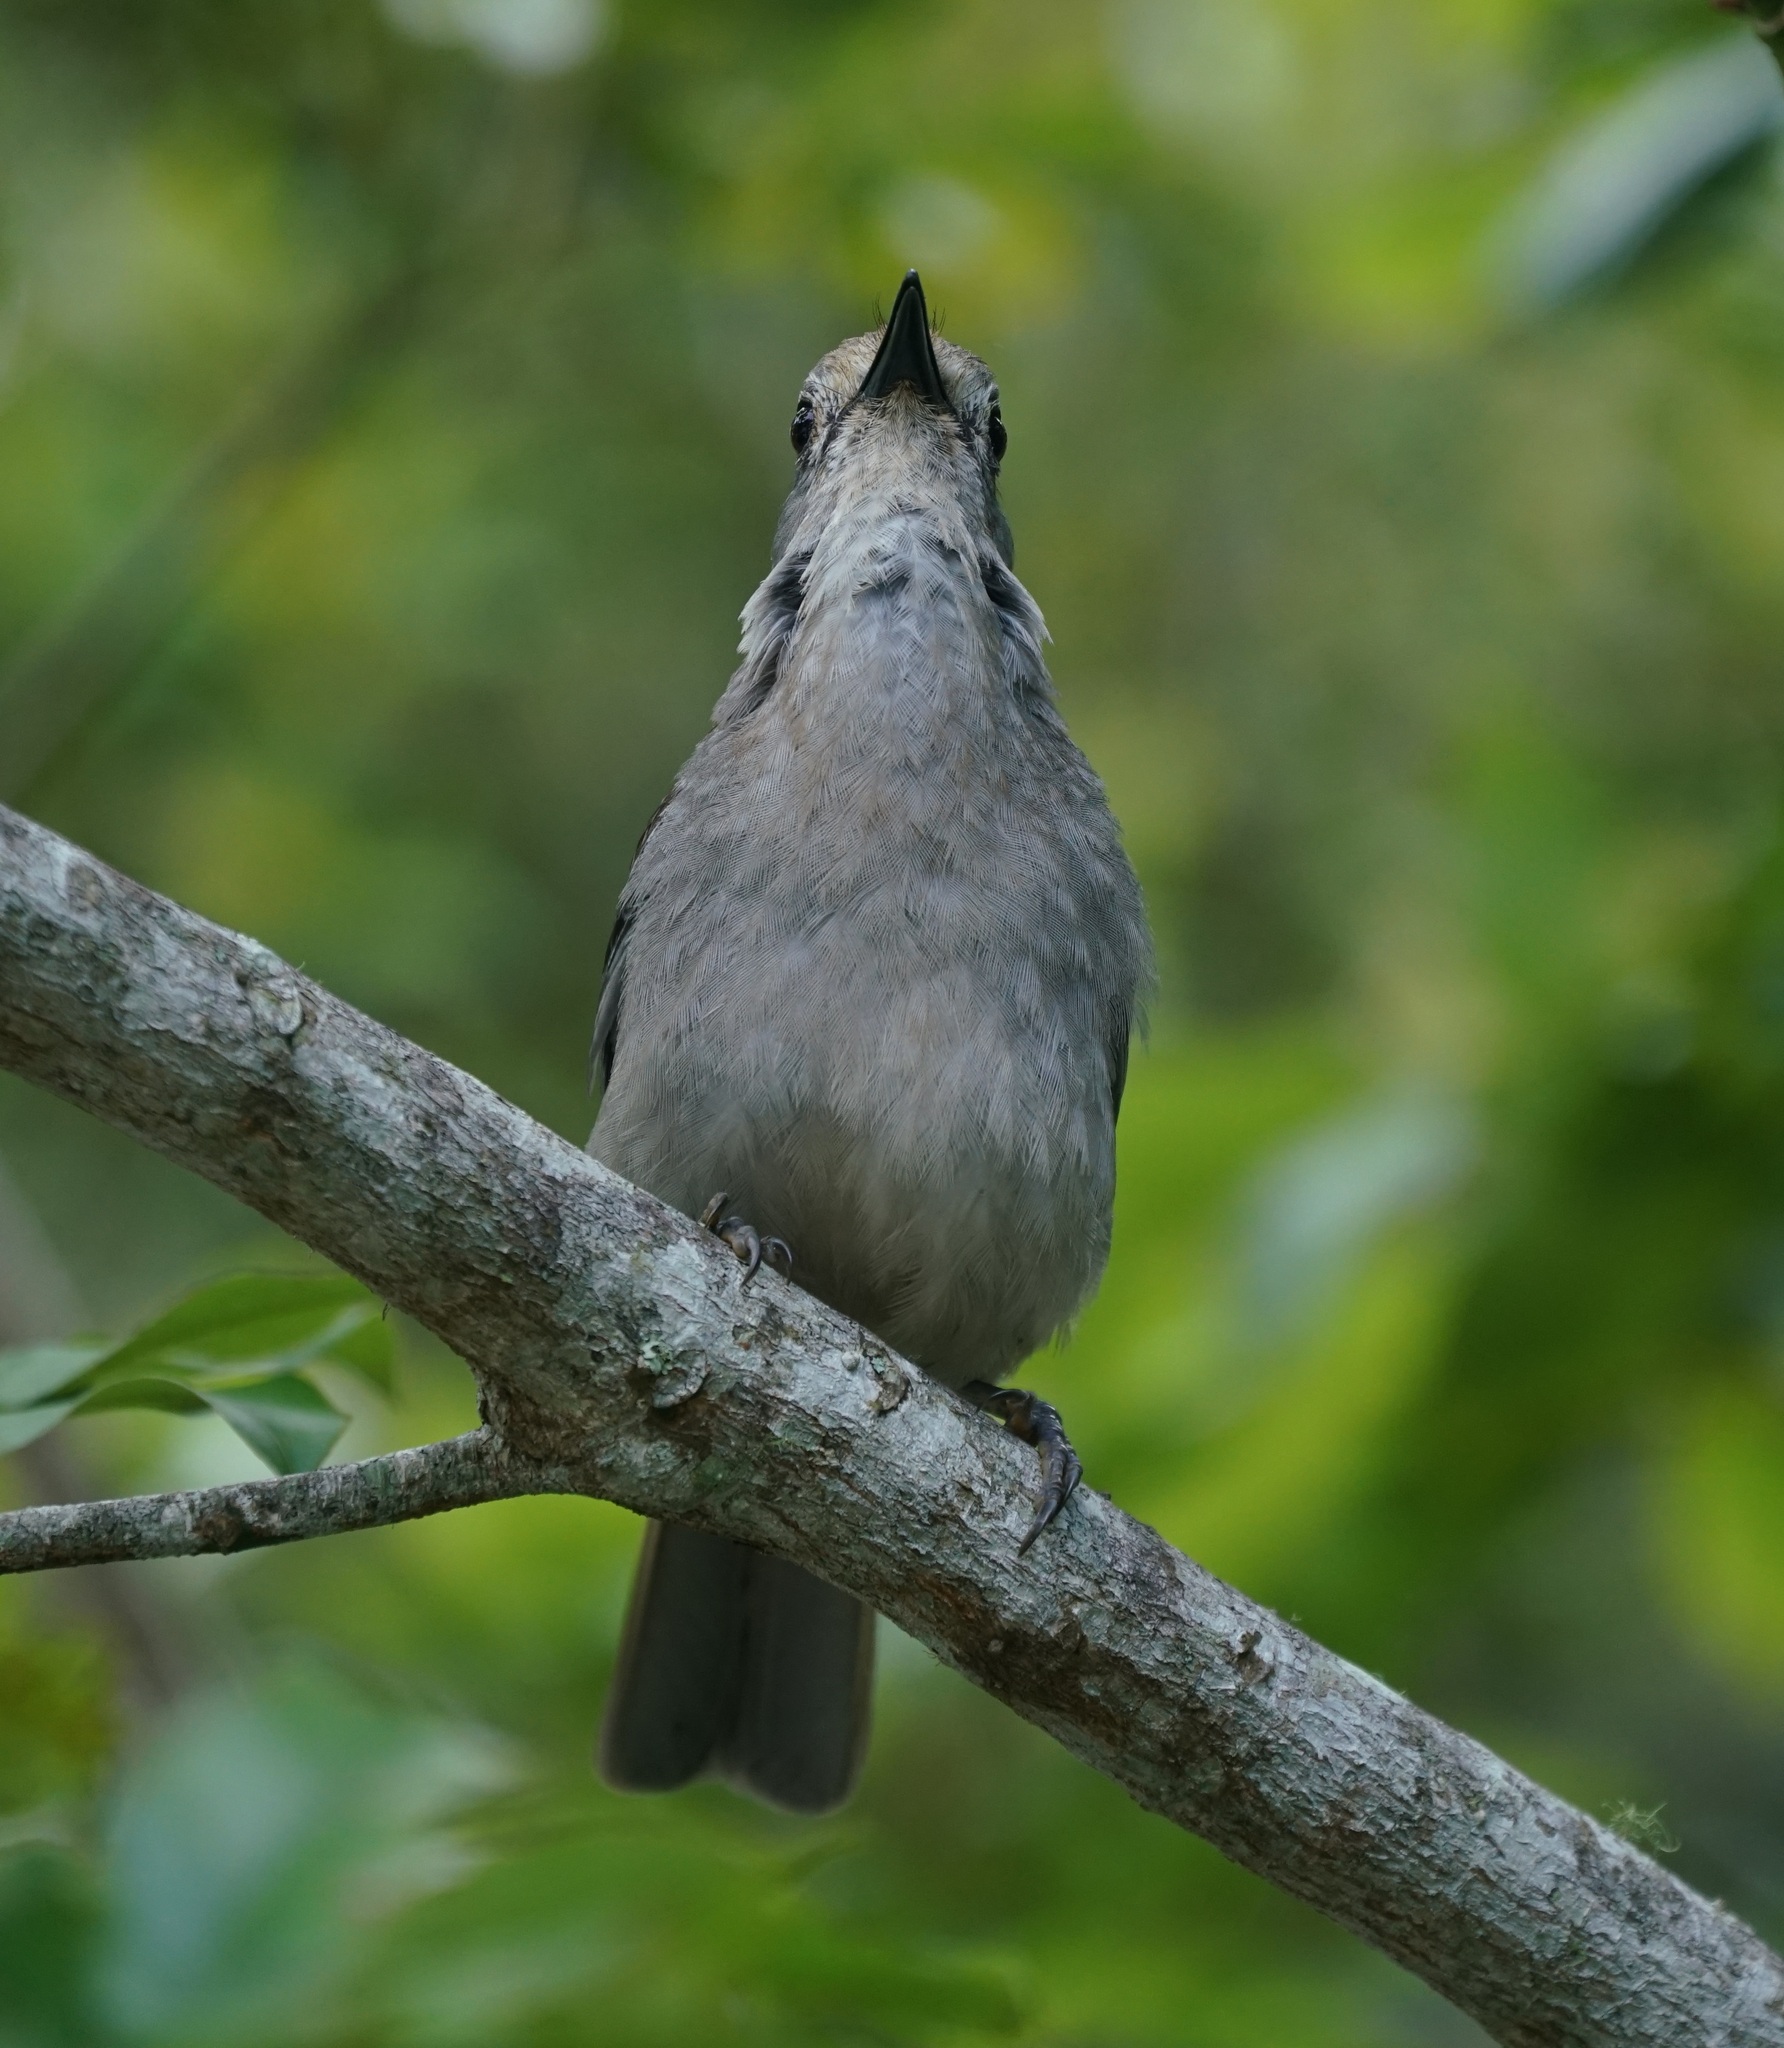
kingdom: Animalia
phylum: Chordata
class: Aves
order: Passeriformes
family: Pachycephalidae
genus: Colluricincla
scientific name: Colluricincla harmonica
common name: Grey shrikethrush
